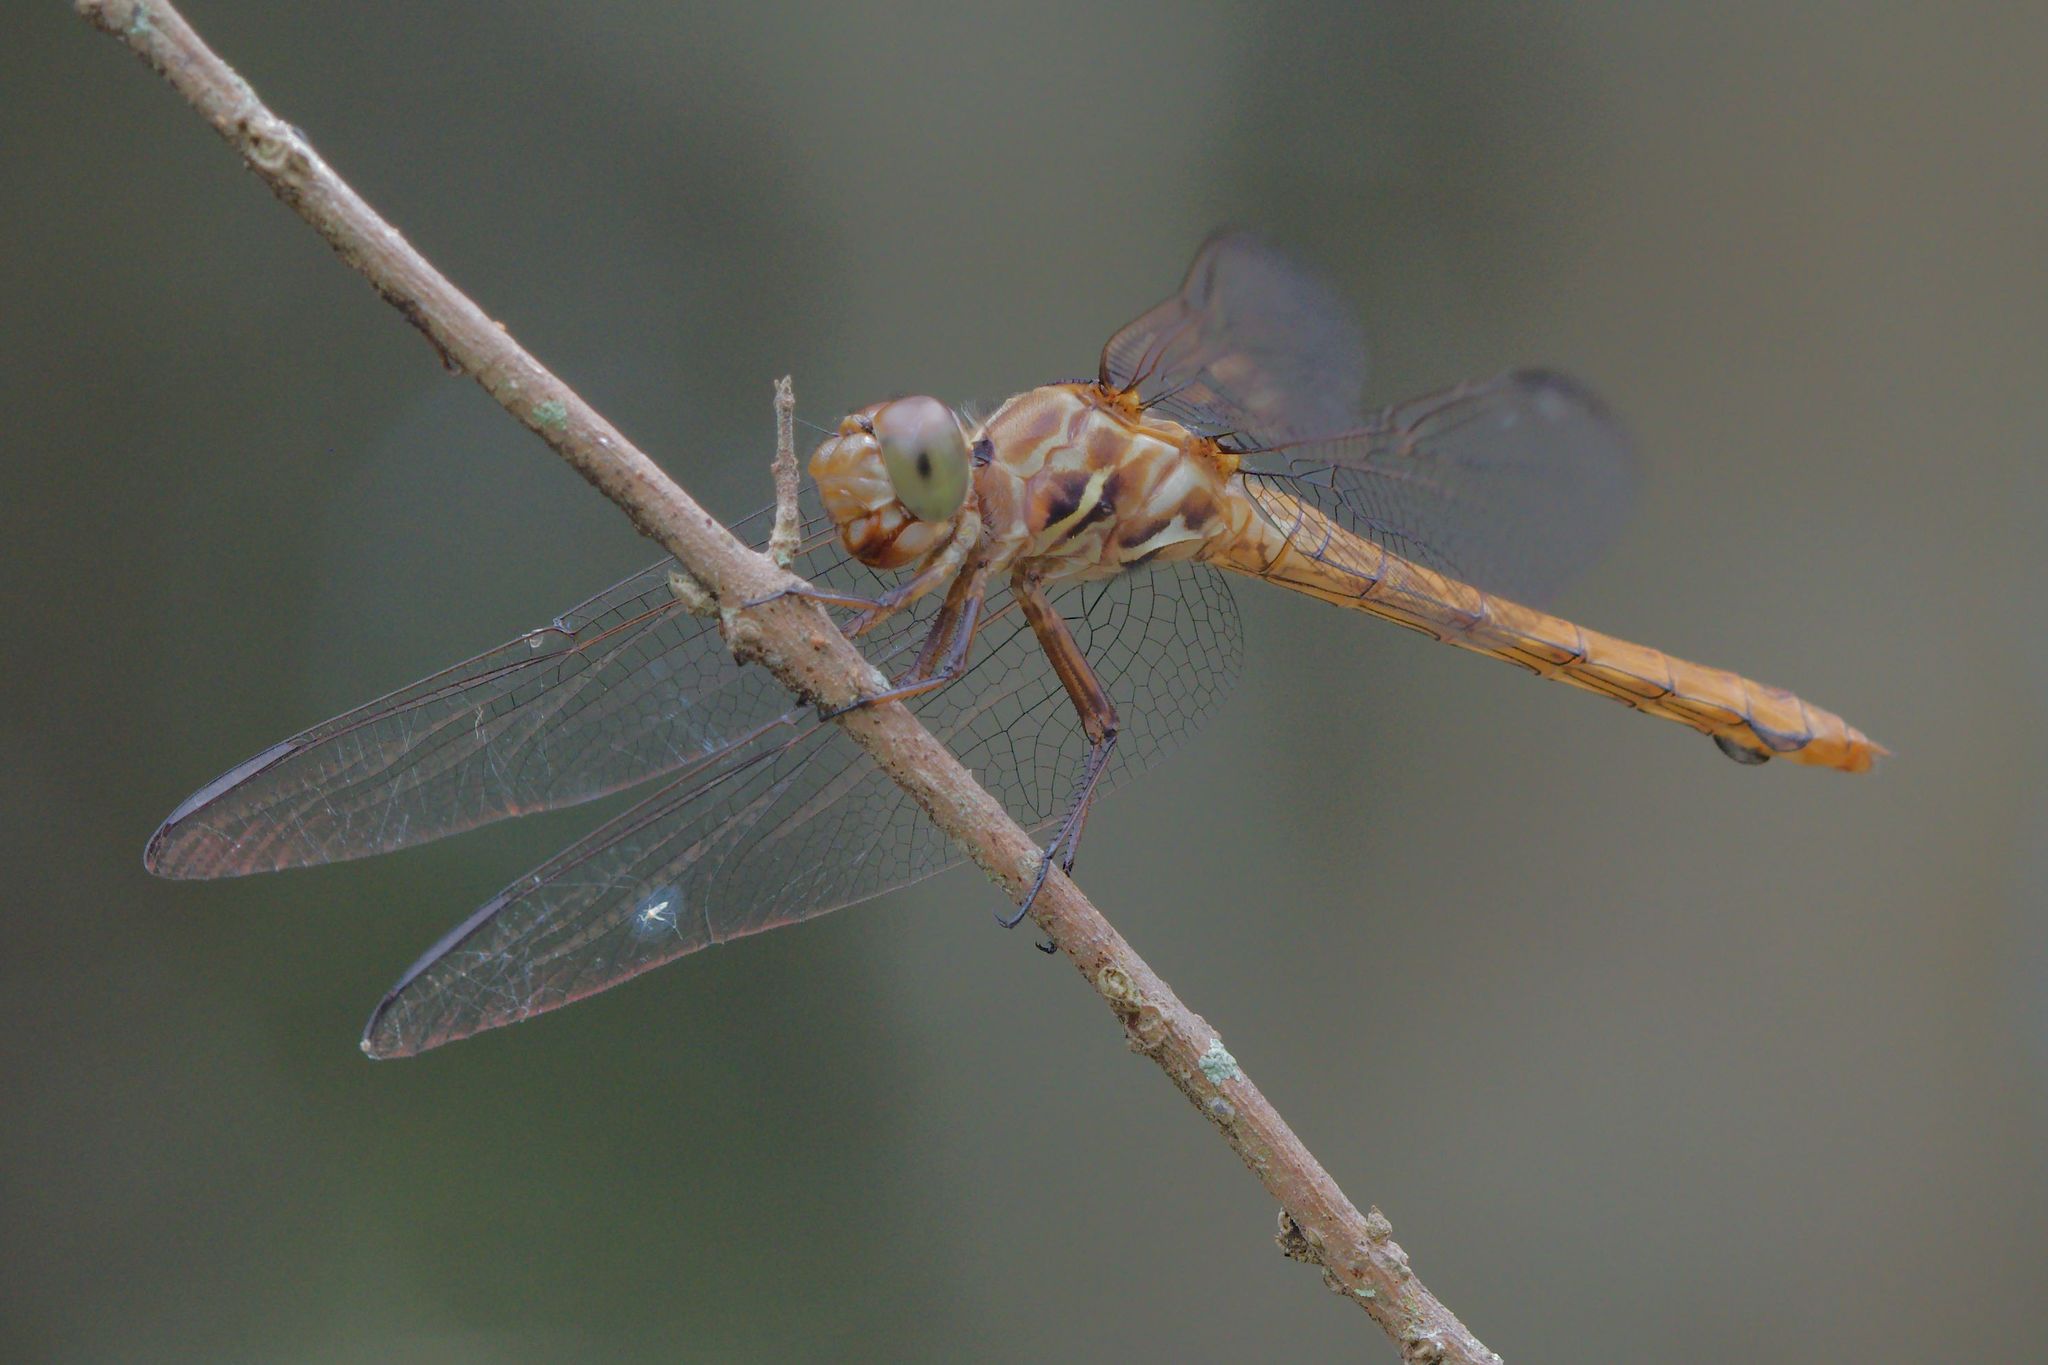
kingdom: Animalia
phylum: Arthropoda
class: Insecta
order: Odonata
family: Libellulidae
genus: Orthemis
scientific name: Orthemis ferruginea
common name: Roseate skimmer
